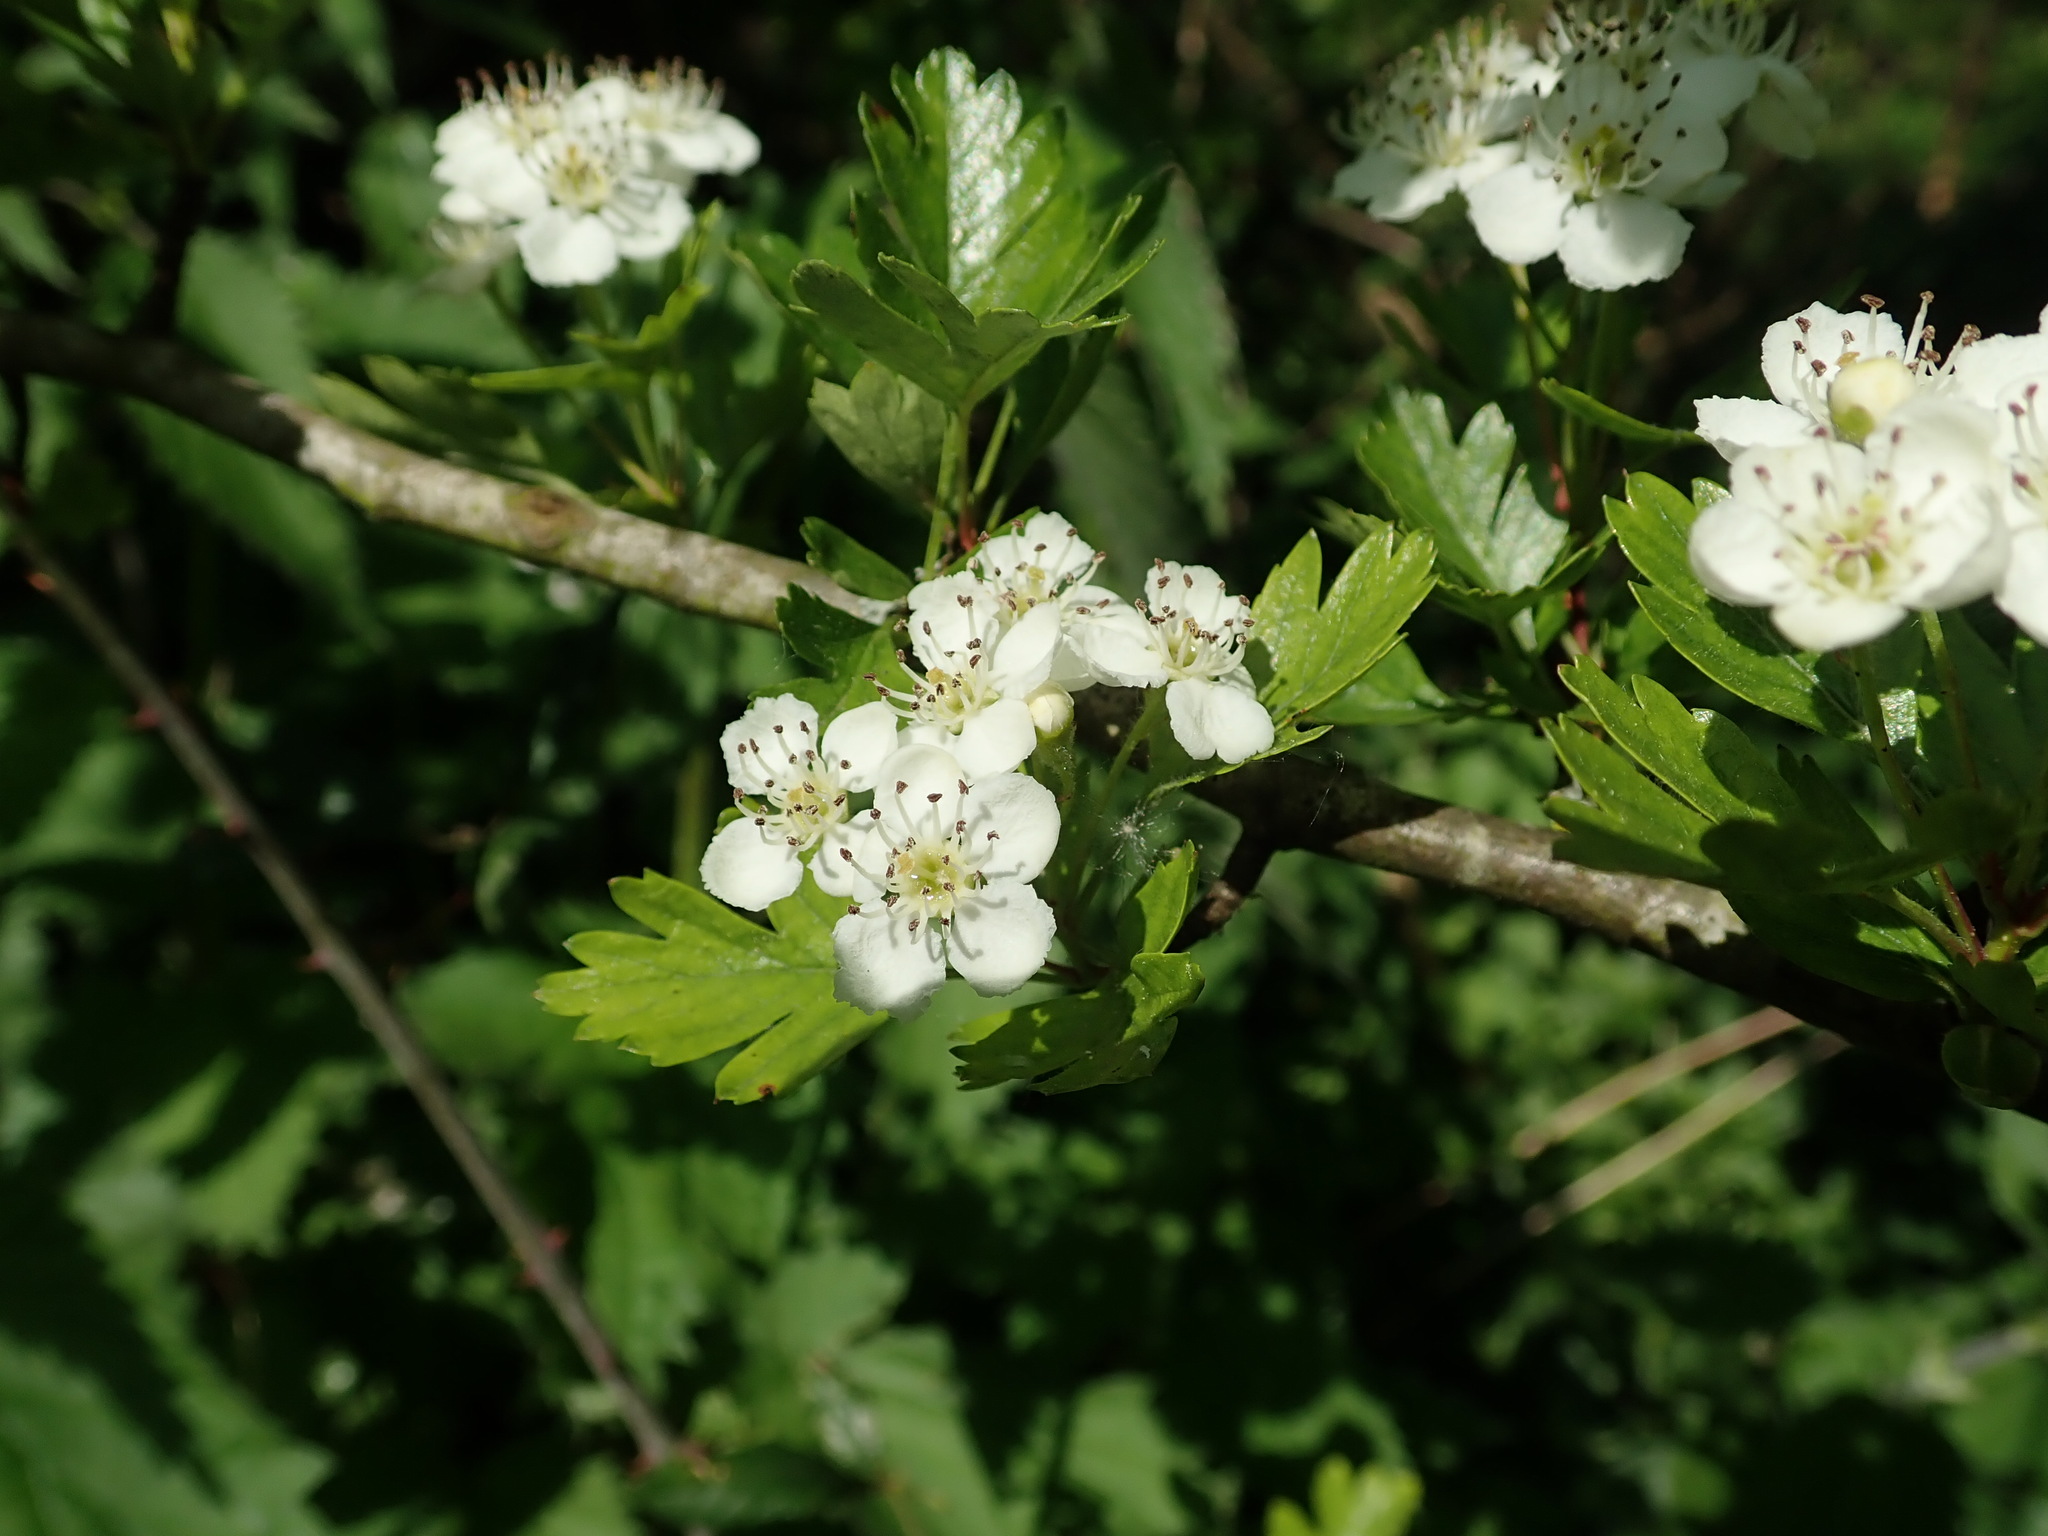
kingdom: Plantae
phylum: Tracheophyta
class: Magnoliopsida
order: Rosales
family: Rosaceae
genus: Crataegus
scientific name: Crataegus monogyna
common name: Hawthorn
